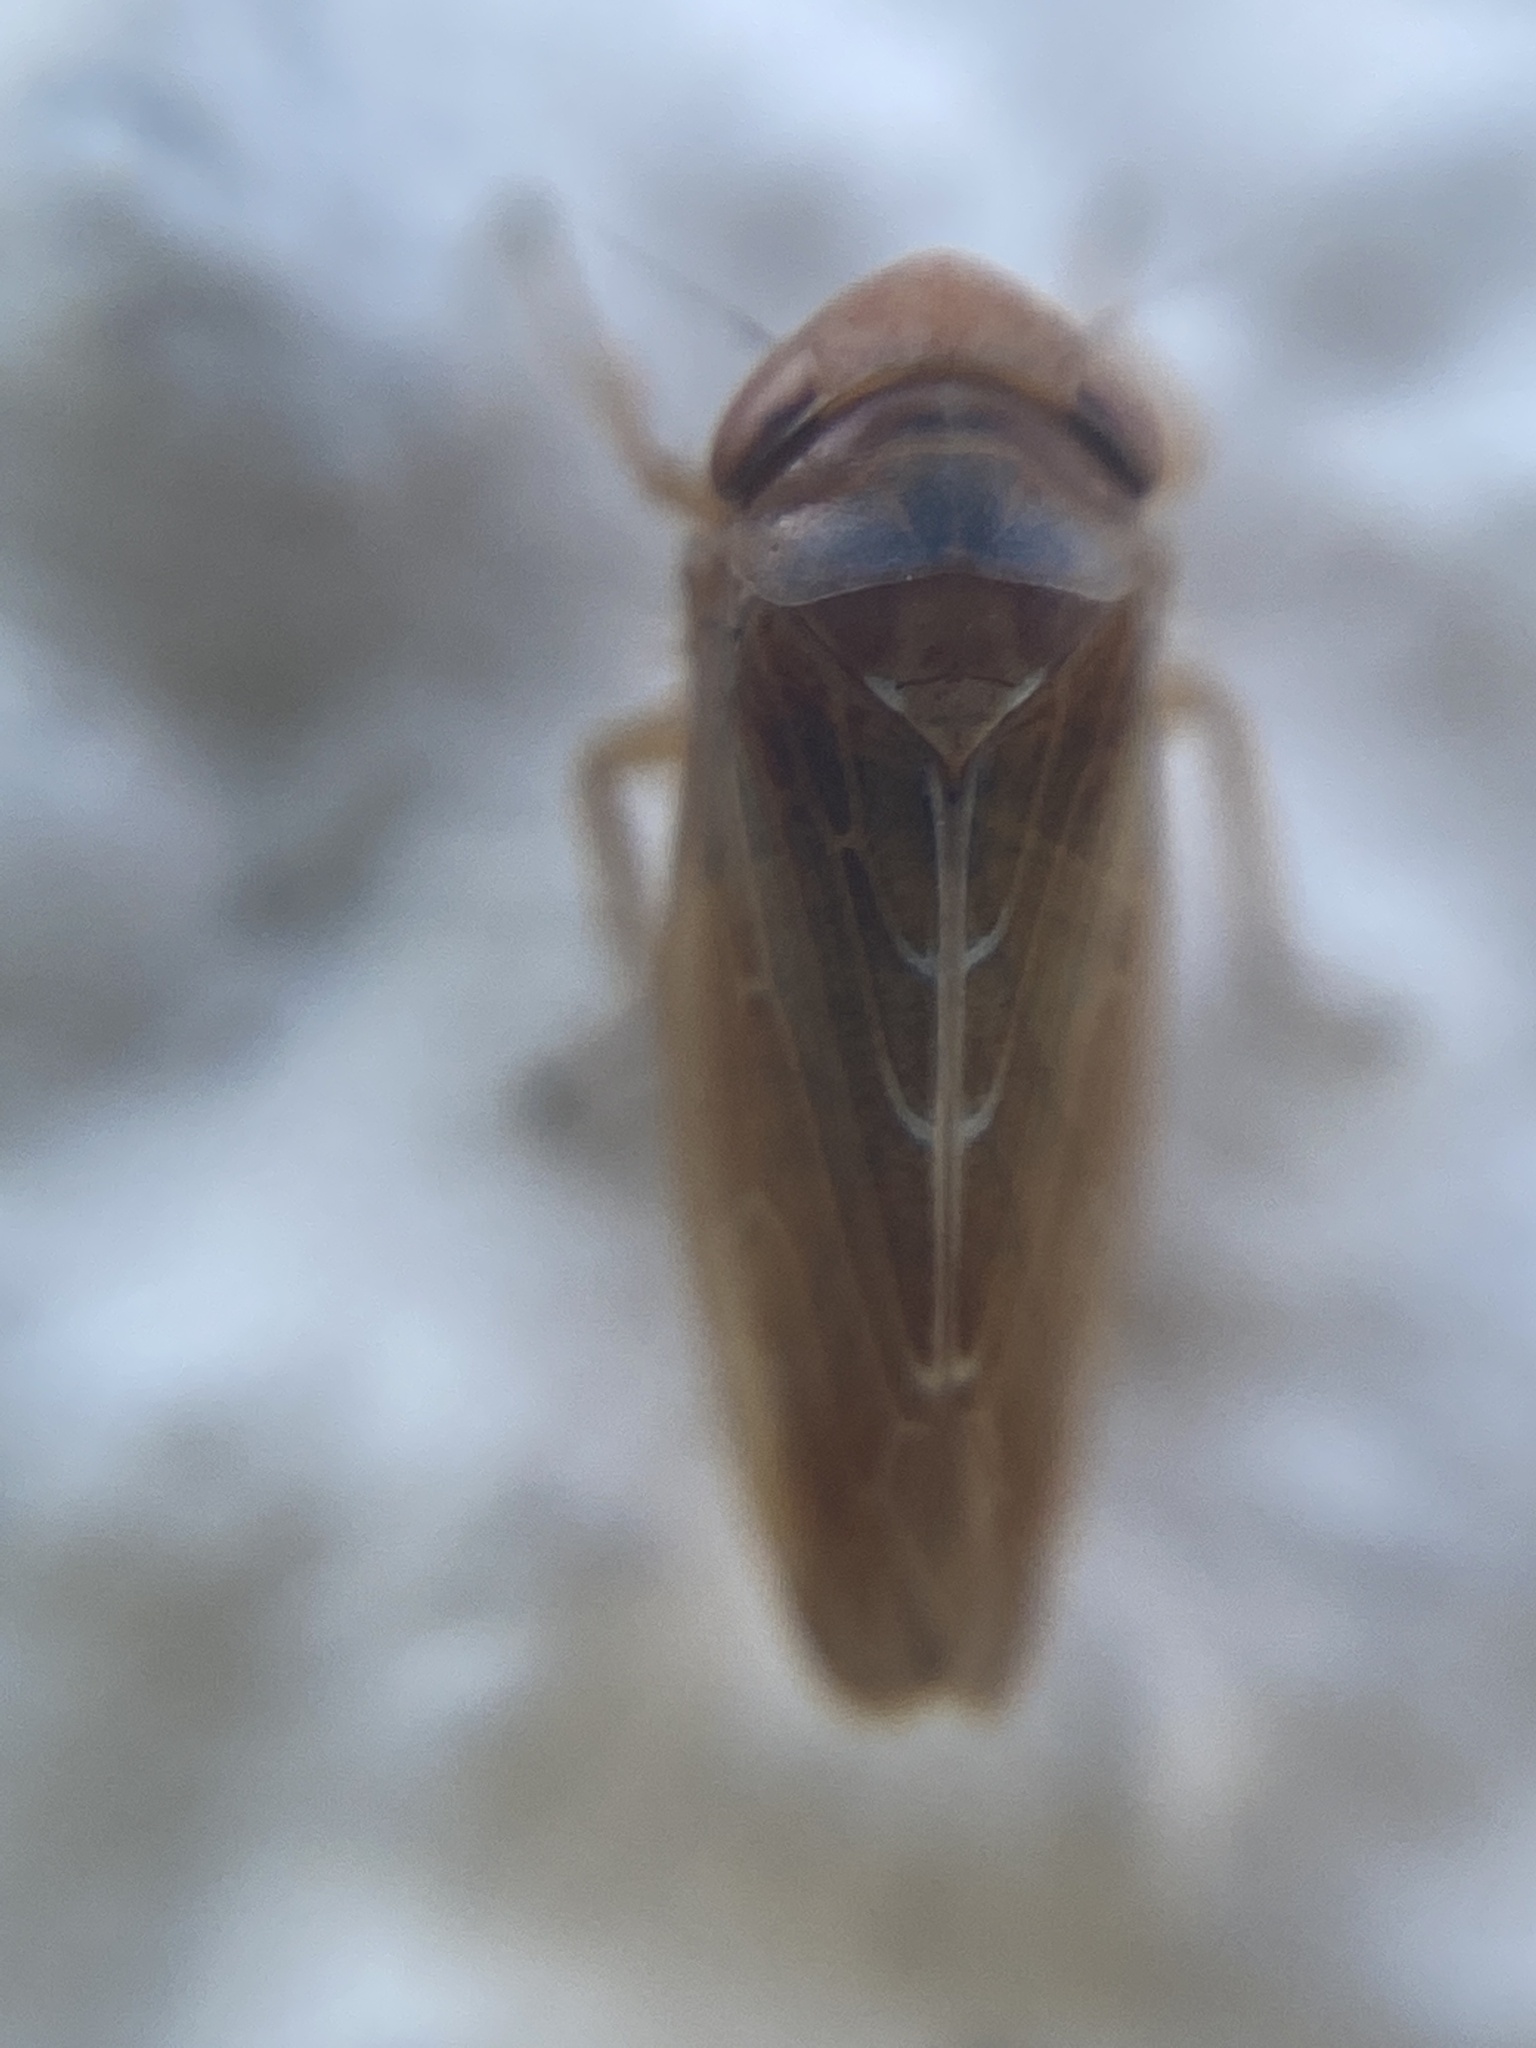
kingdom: Animalia
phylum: Arthropoda
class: Insecta
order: Hemiptera
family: Cicadellidae
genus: Pithyotettix
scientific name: Pithyotettix morbillosus
